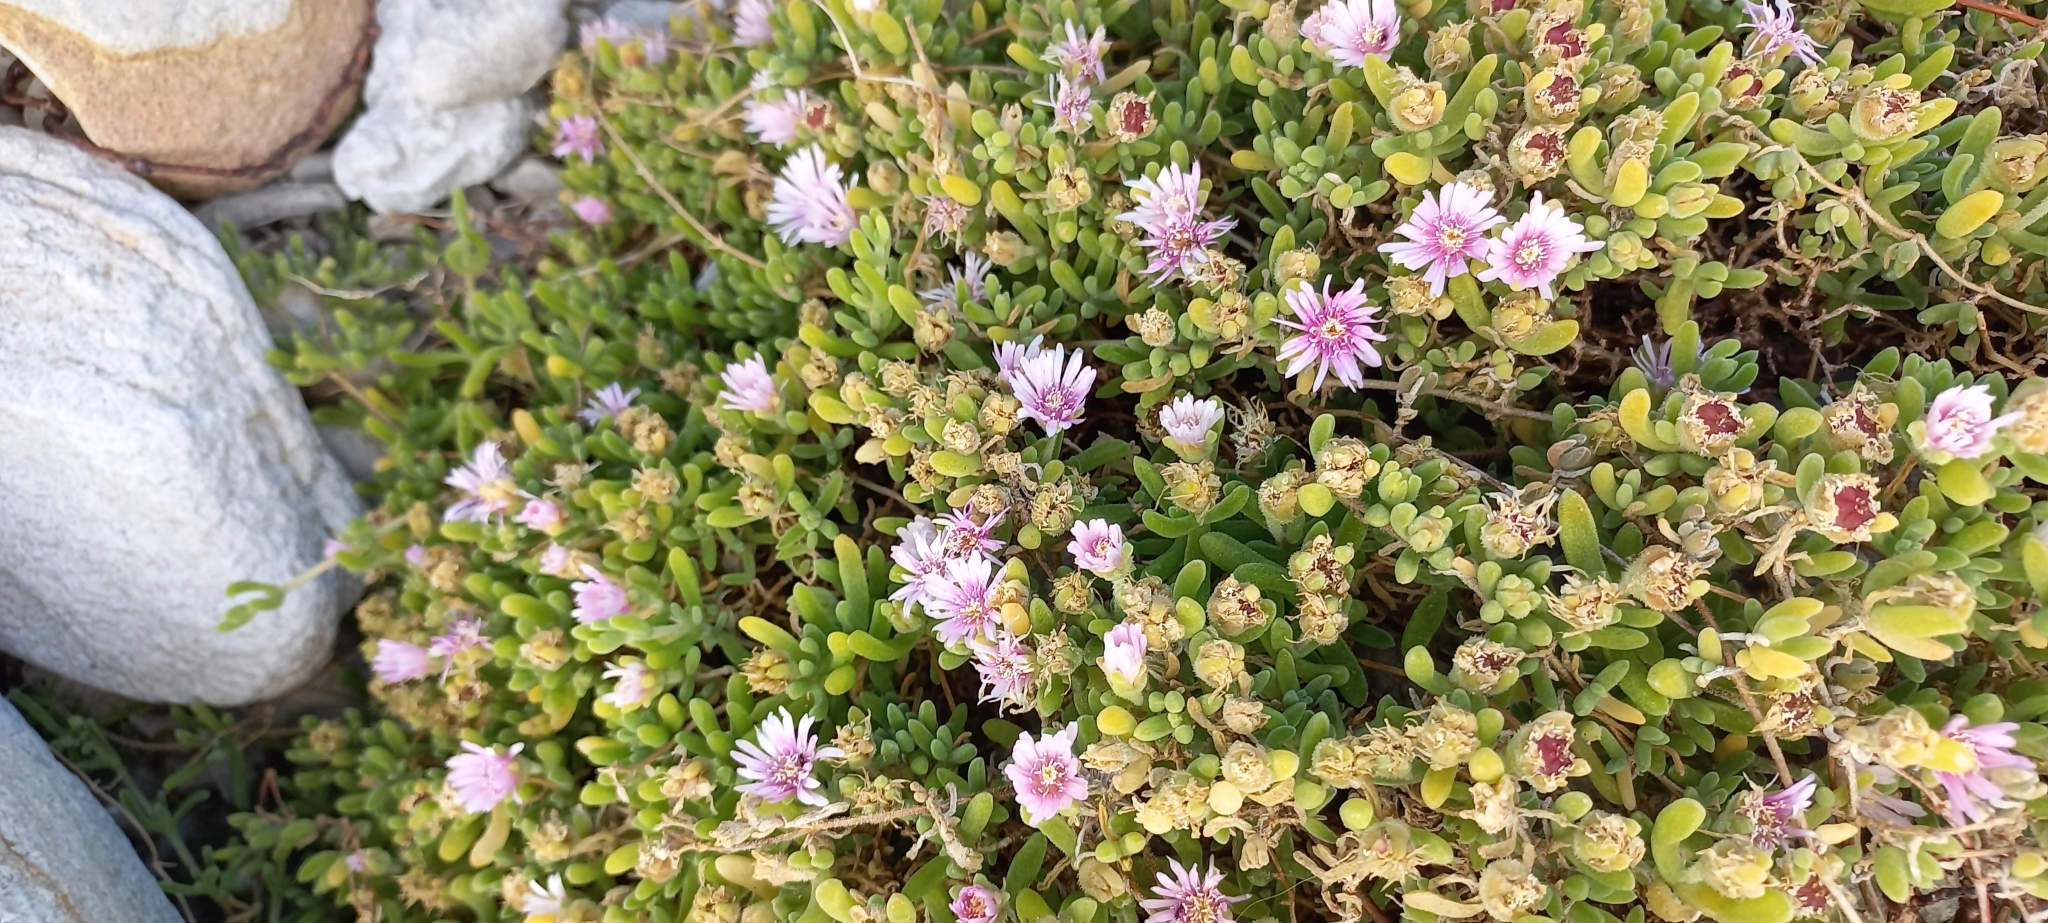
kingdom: Plantae
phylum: Tracheophyta
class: Magnoliopsida
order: Caryophyllales
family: Aizoaceae
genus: Drosanthemum
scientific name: Drosanthemum candens
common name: Rodondo-creeper
